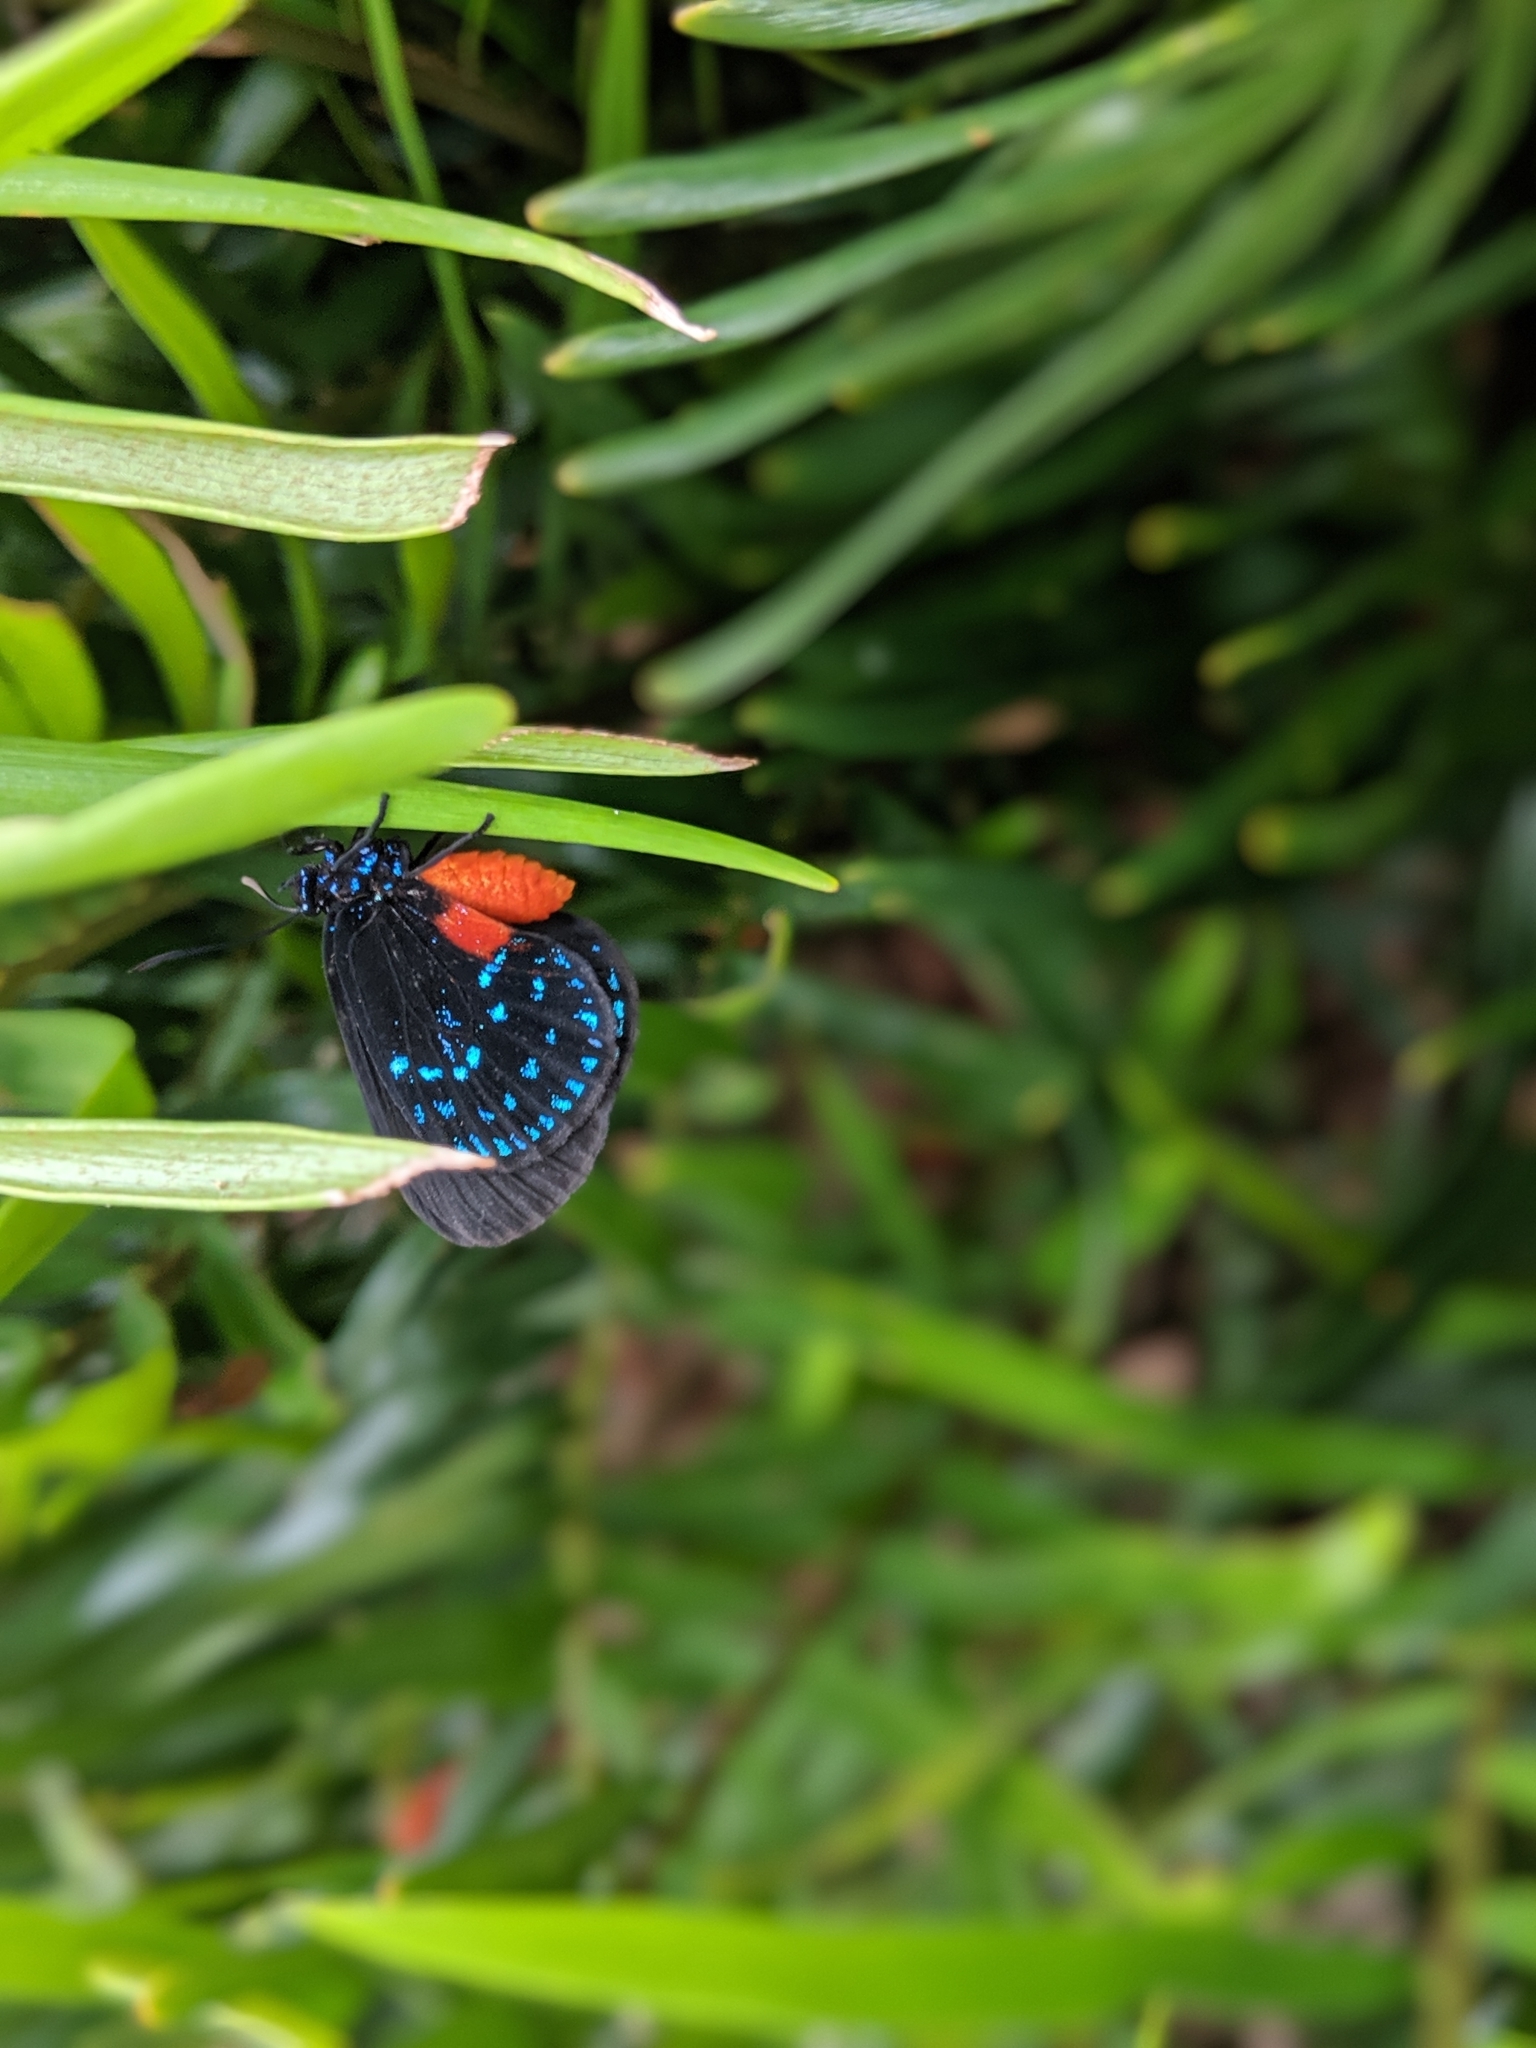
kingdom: Animalia
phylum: Arthropoda
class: Insecta
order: Lepidoptera
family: Lycaenidae
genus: Eumaeus
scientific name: Eumaeus atala
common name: Atala
